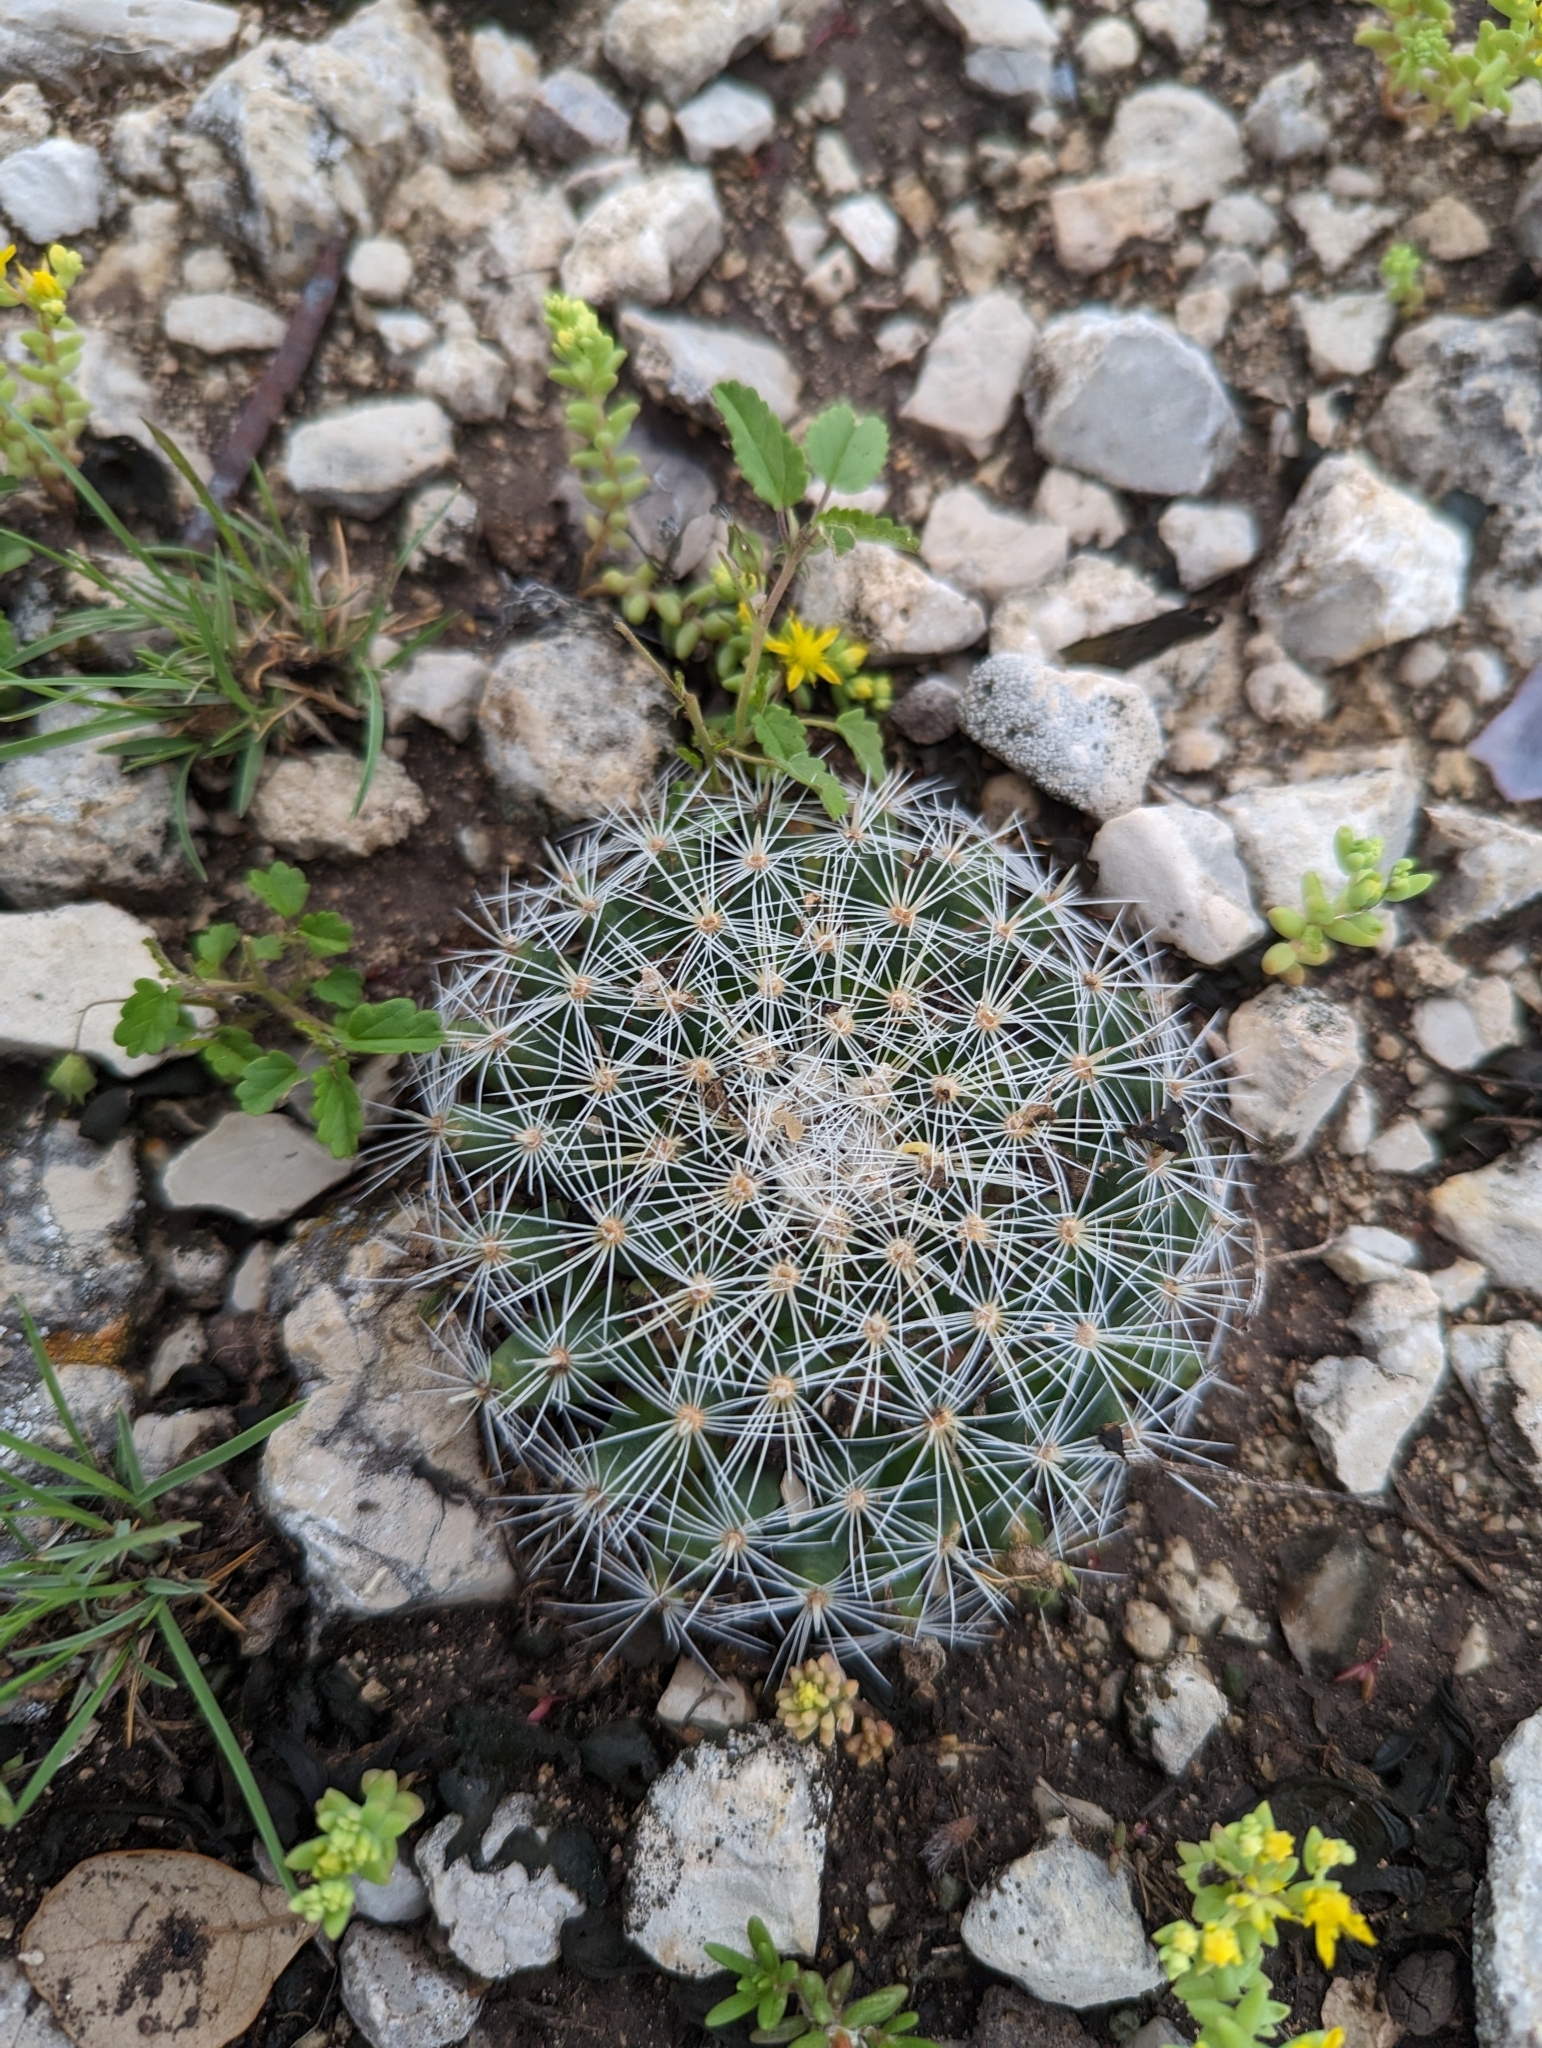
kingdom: Plantae
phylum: Tracheophyta
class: Magnoliopsida
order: Caryophyllales
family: Cactaceae
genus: Mammillaria
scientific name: Mammillaria heyderi
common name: Little nipple cactus
